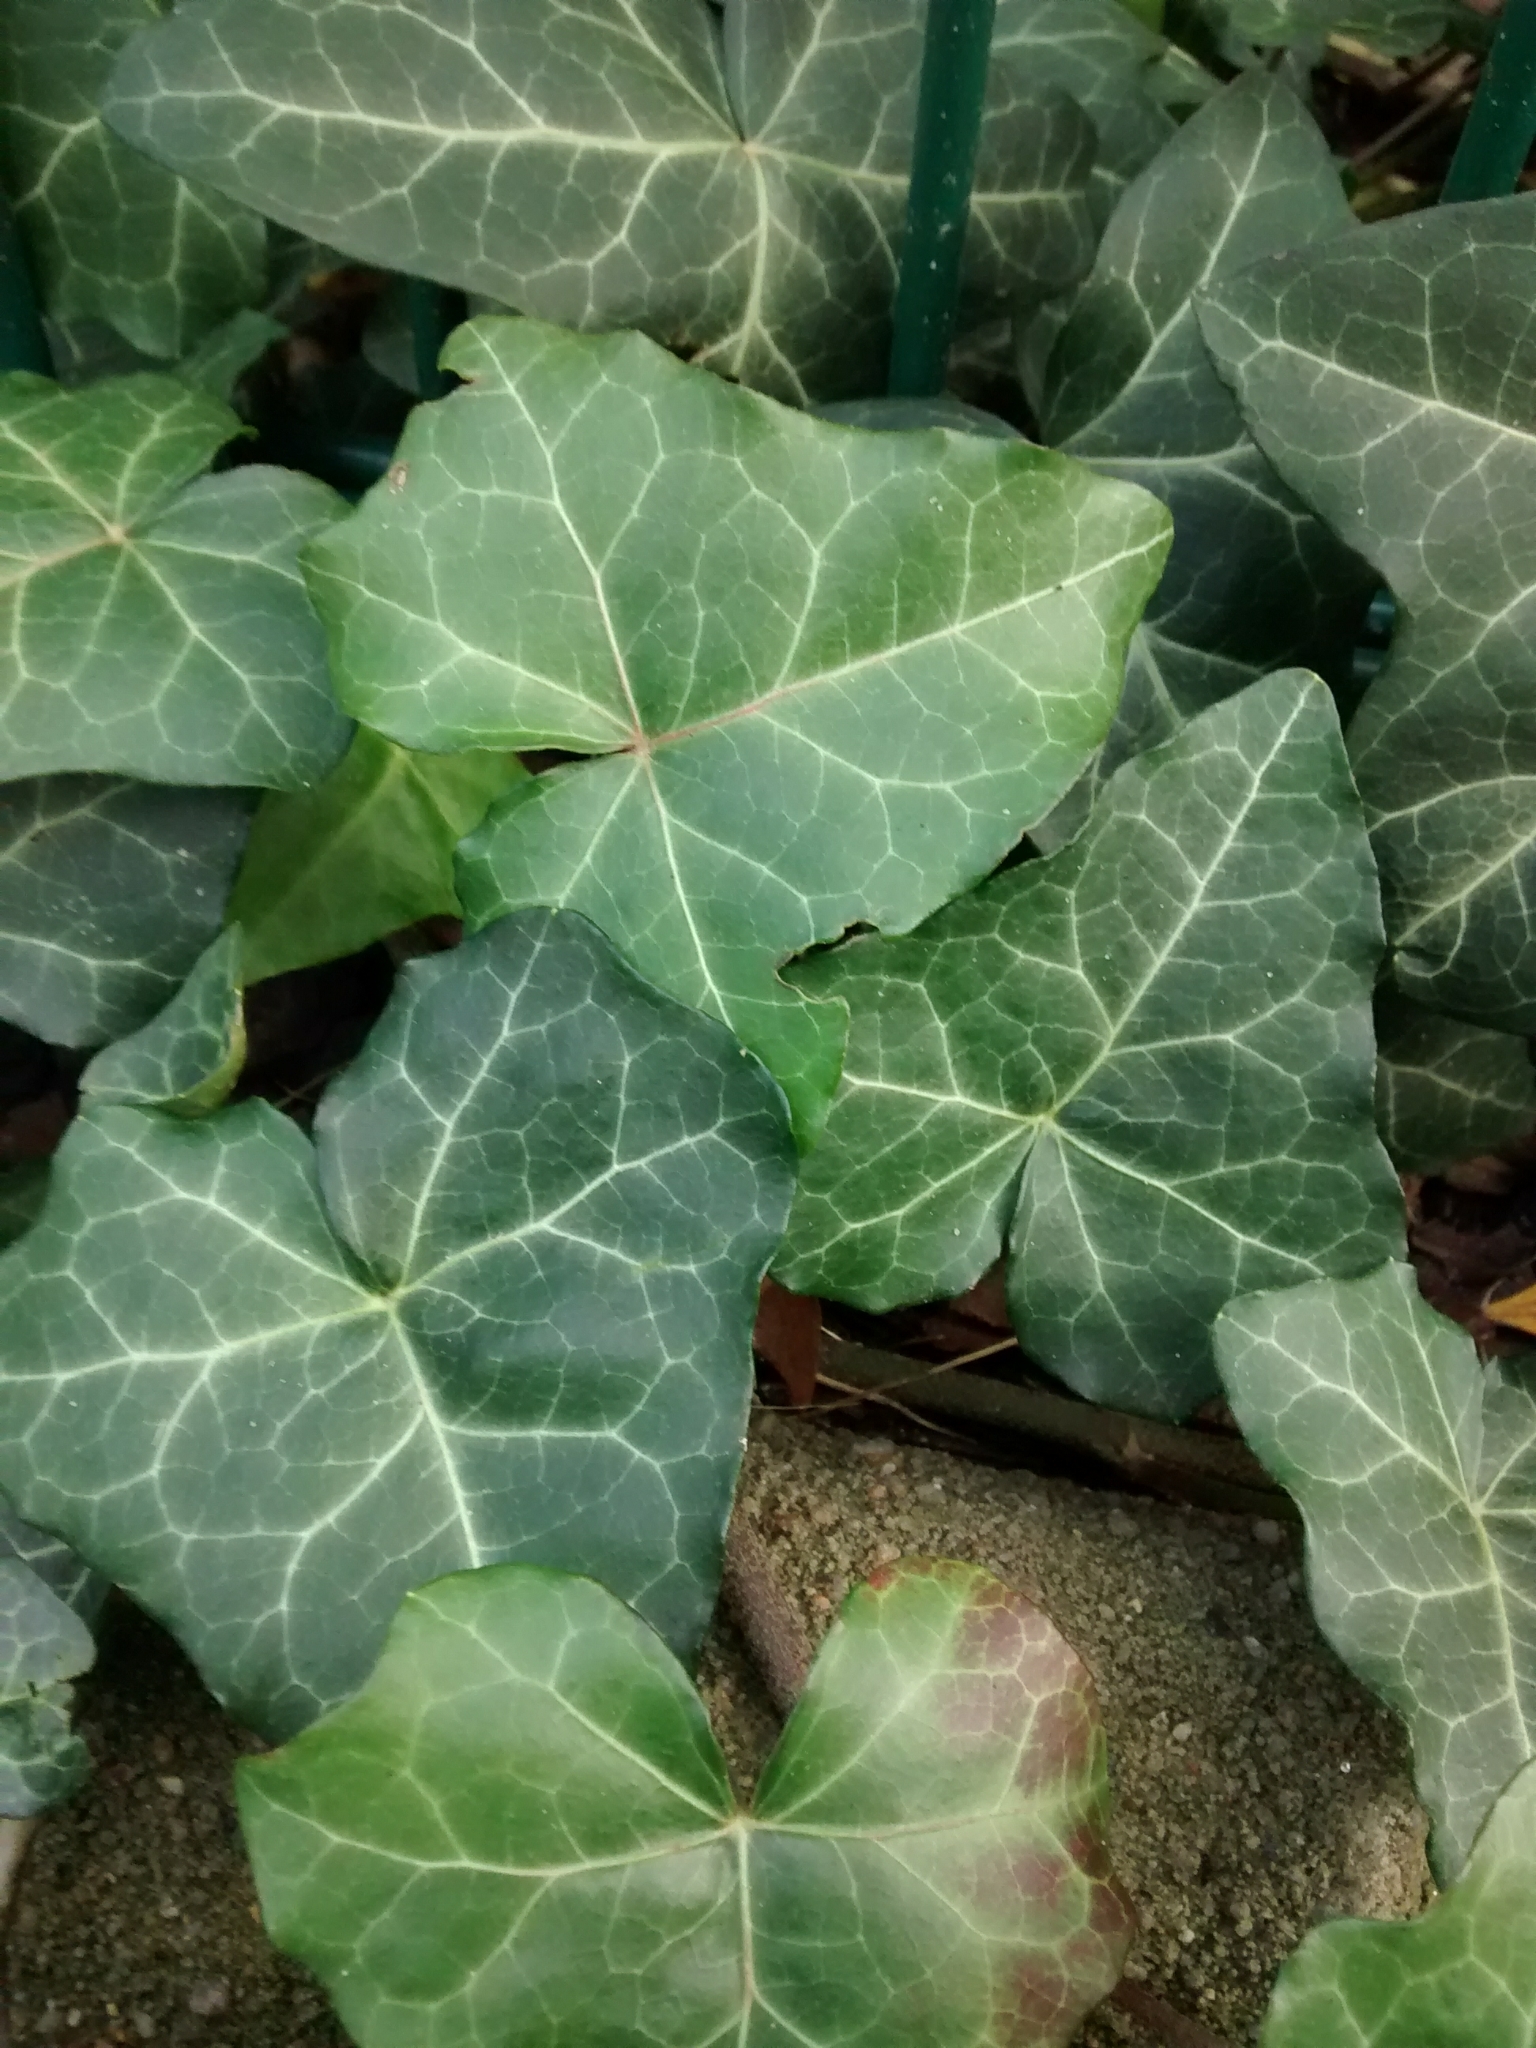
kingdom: Plantae
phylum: Tracheophyta
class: Magnoliopsida
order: Apiales
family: Araliaceae
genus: Hedera
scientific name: Hedera helix
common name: Ivy
